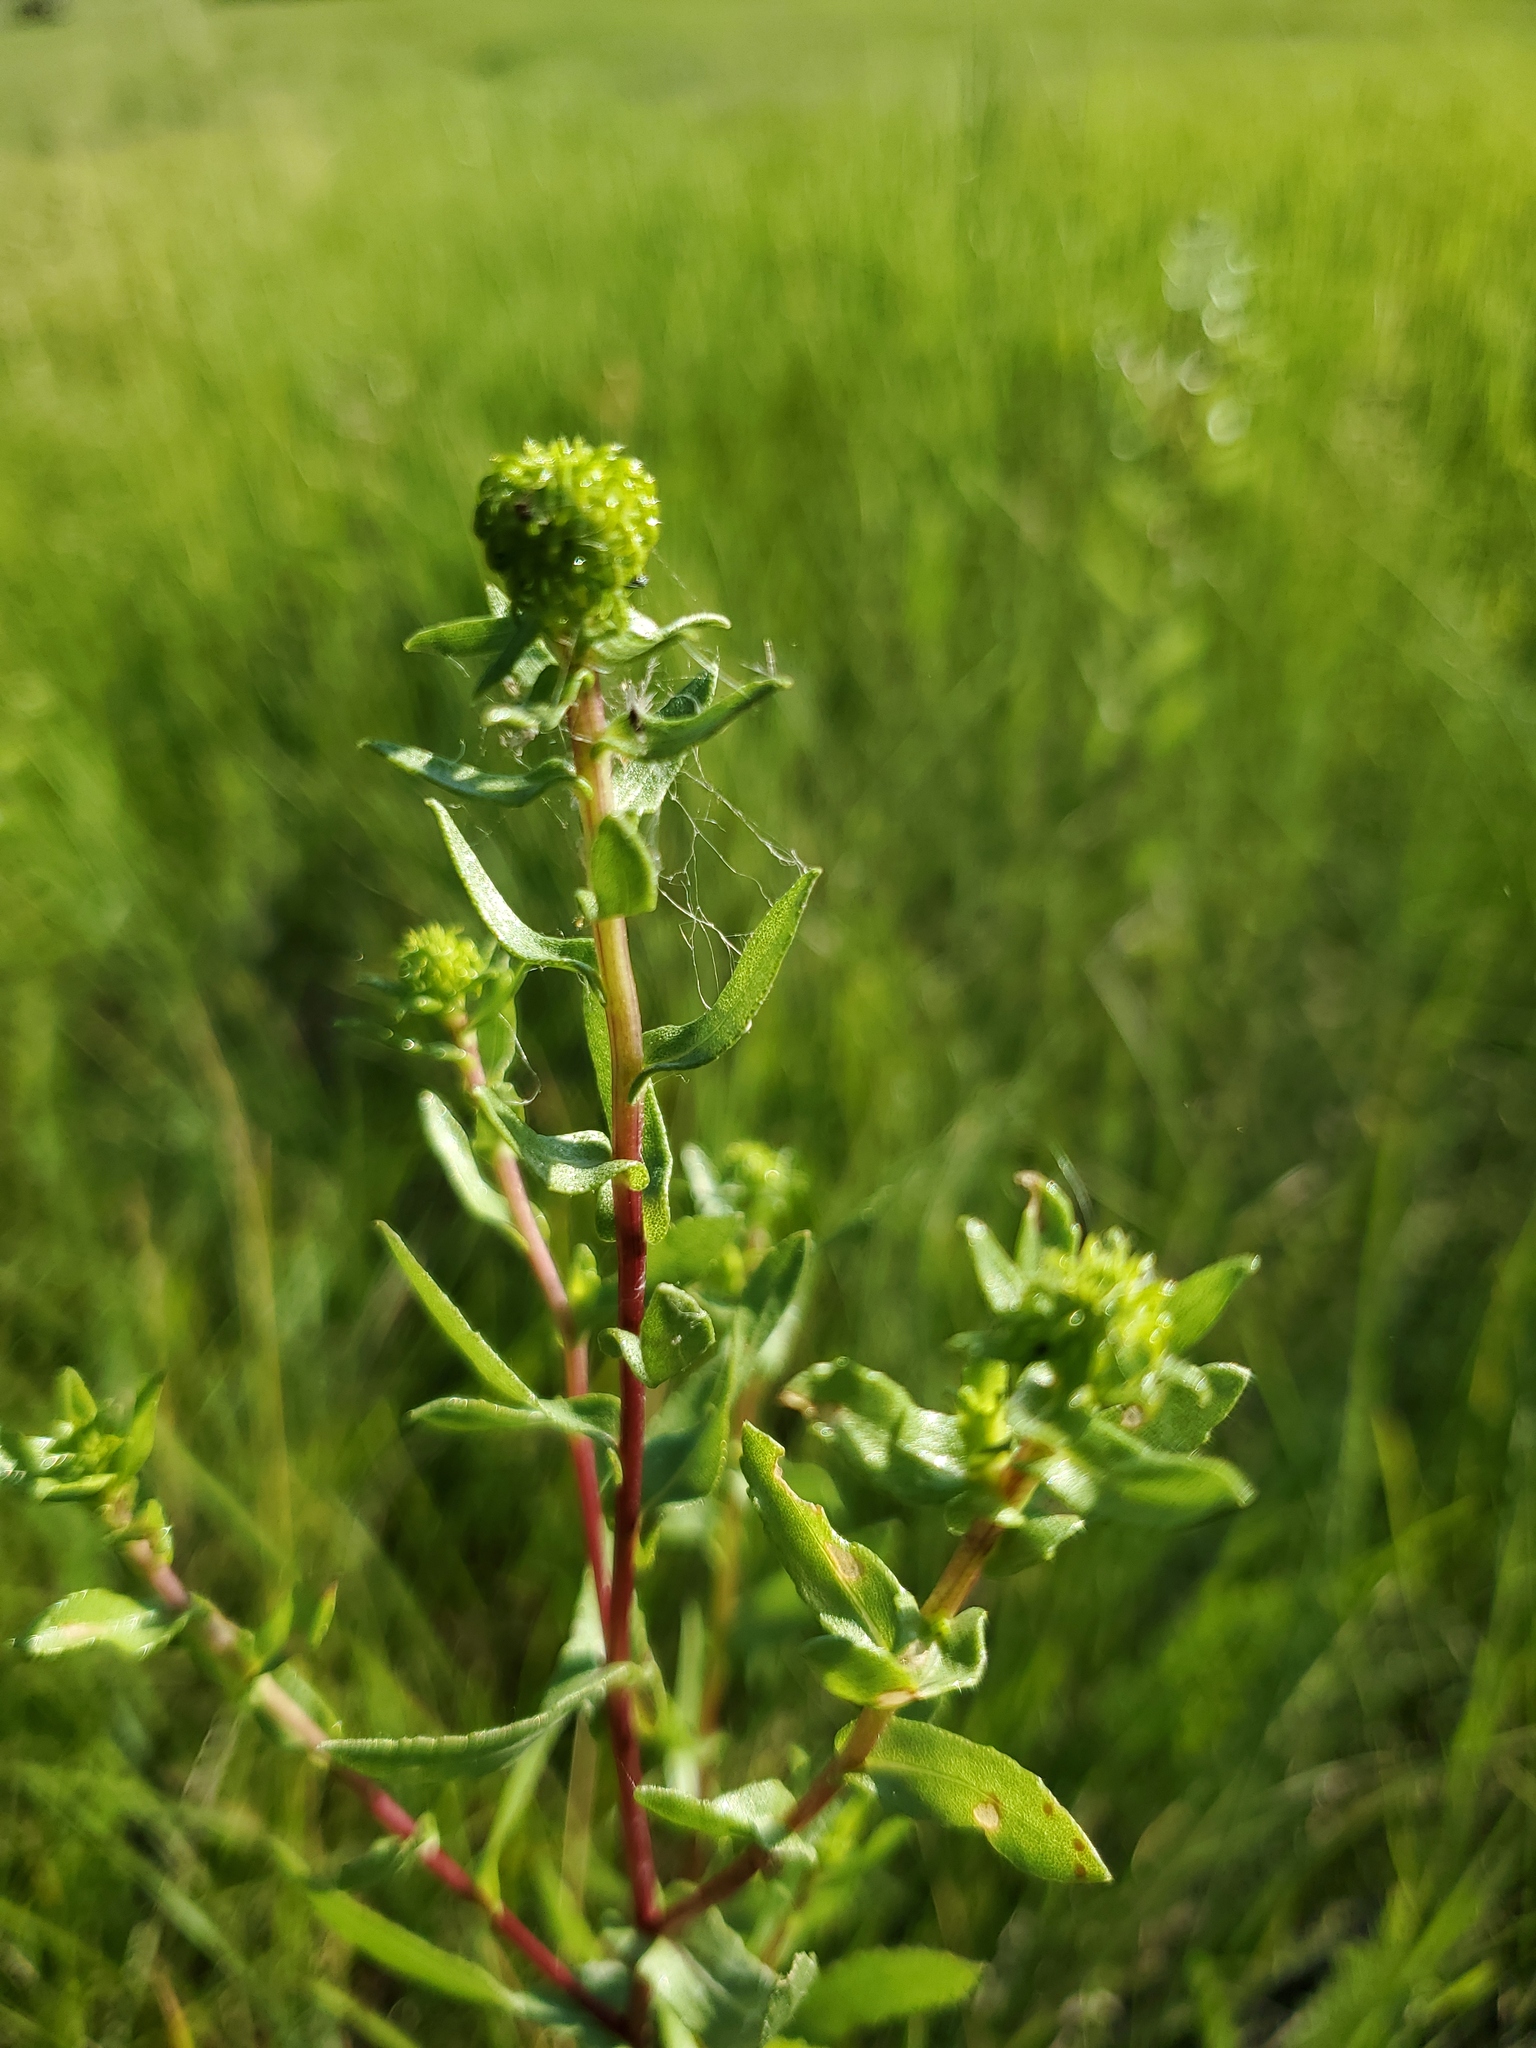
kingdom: Plantae
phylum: Tracheophyta
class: Magnoliopsida
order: Asterales
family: Asteraceae
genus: Grindelia
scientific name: Grindelia squarrosa
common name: Curly-cup gumweed
